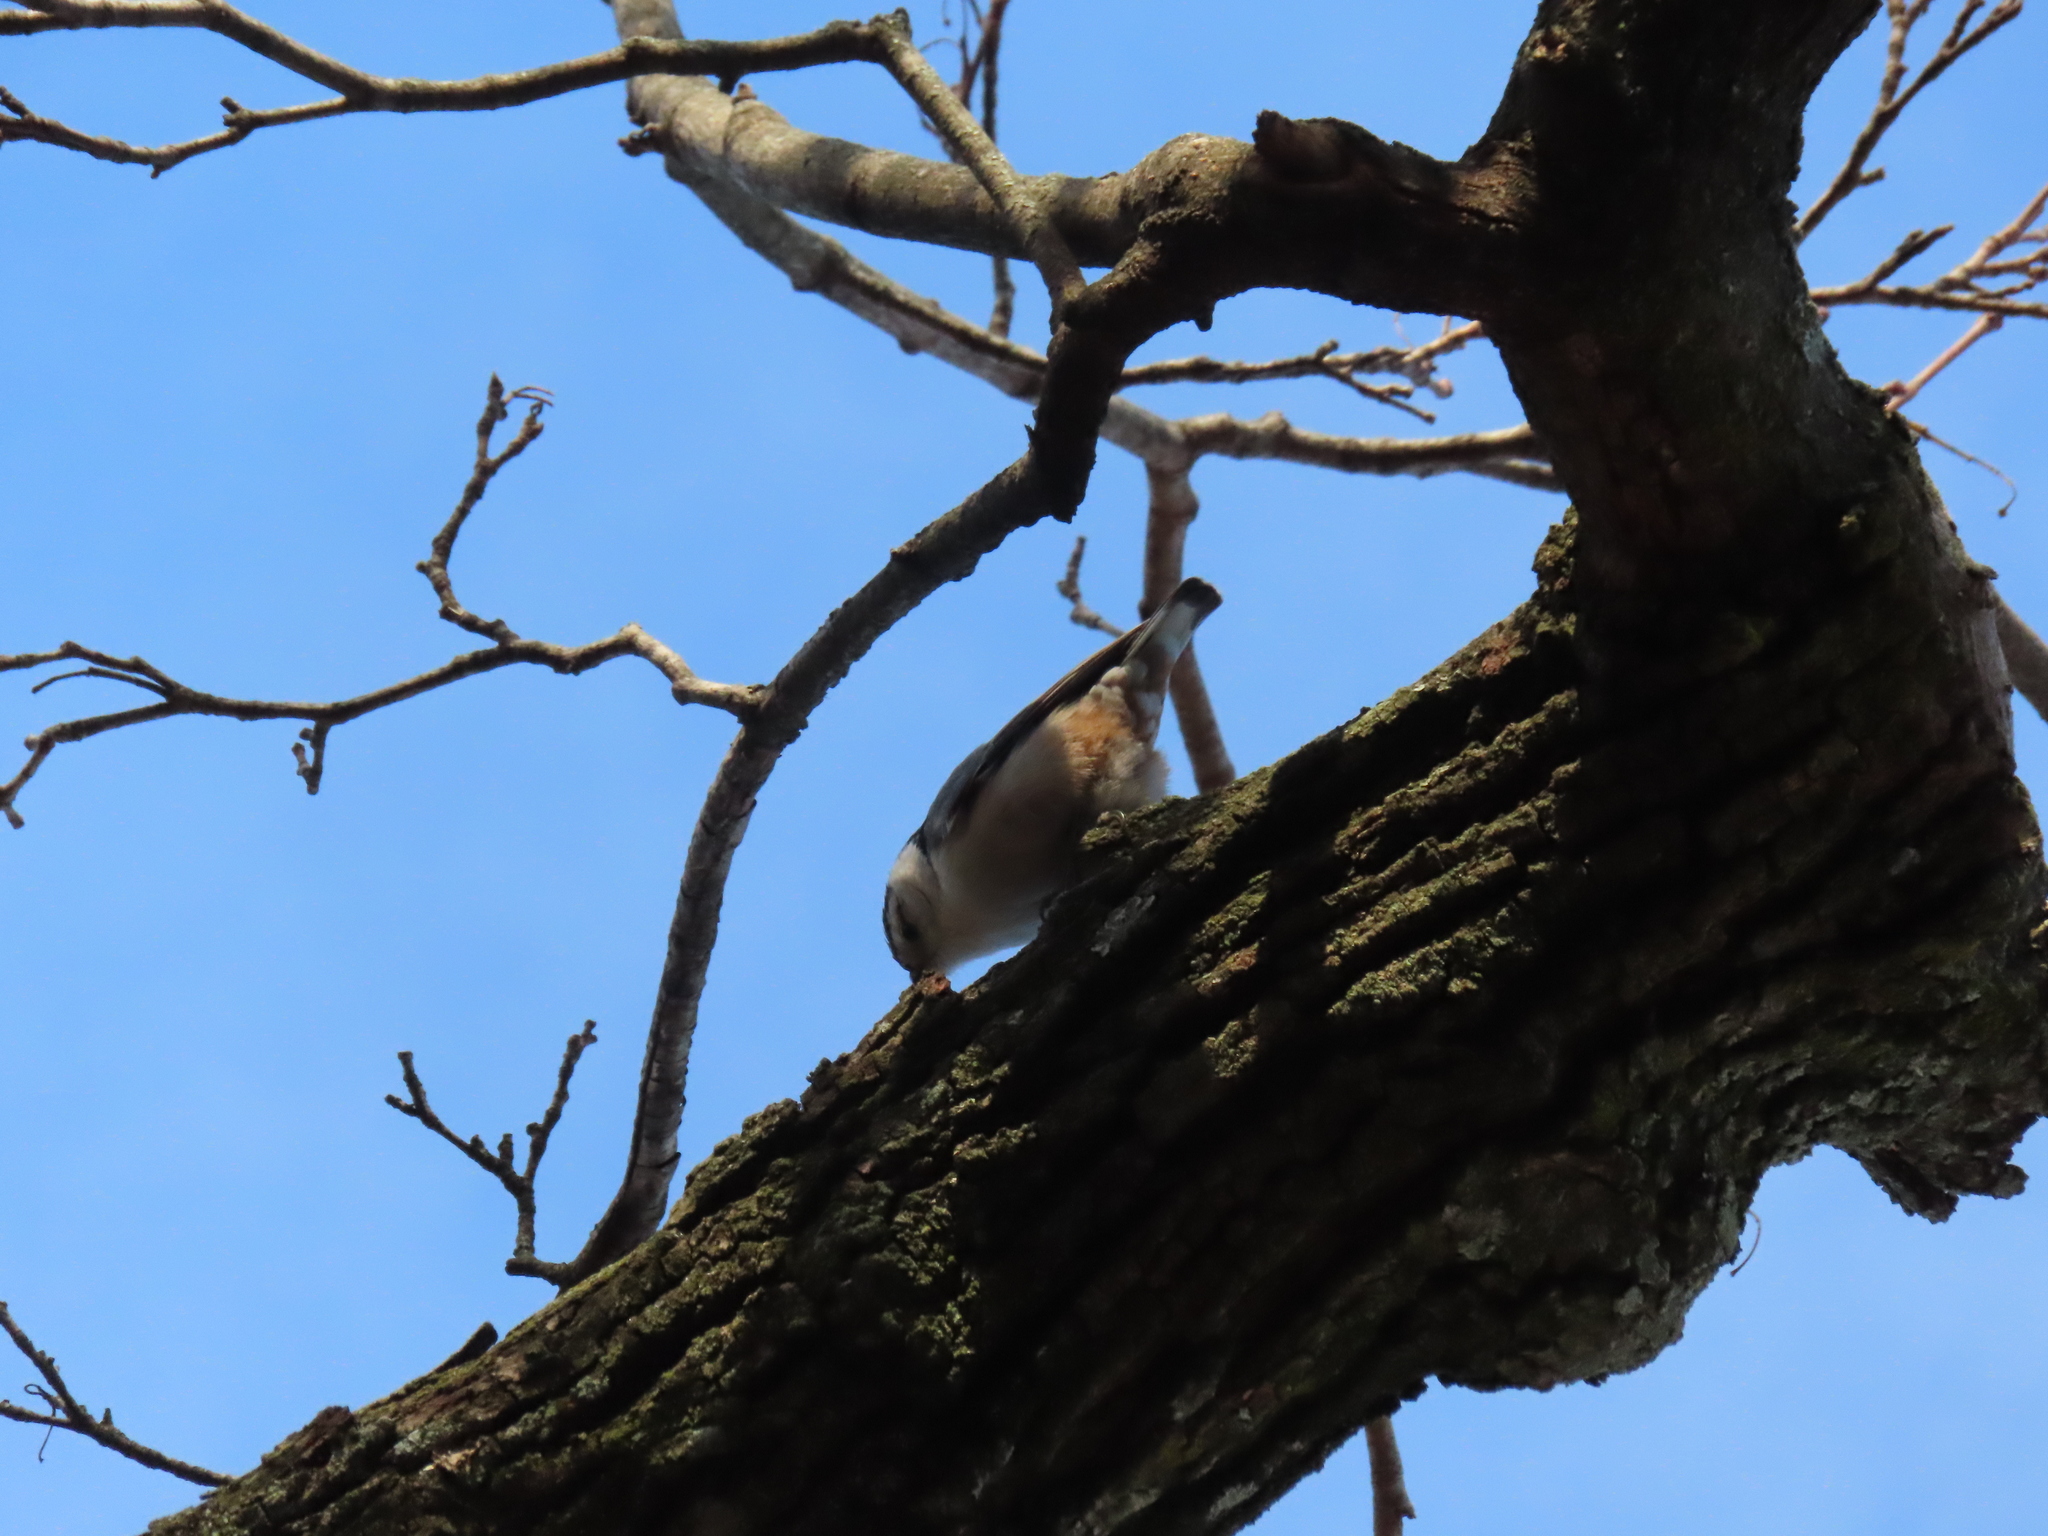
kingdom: Animalia
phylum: Chordata
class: Aves
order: Passeriformes
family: Sittidae
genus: Sitta
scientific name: Sitta carolinensis
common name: White-breasted nuthatch
